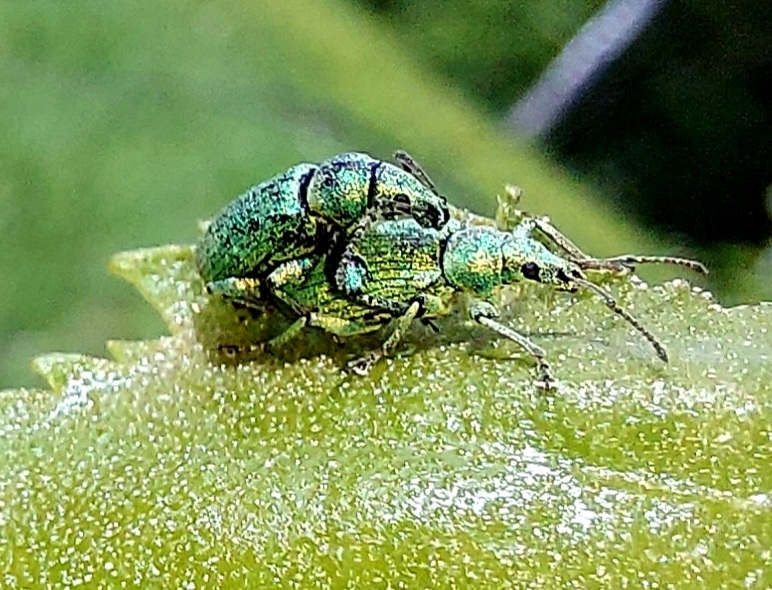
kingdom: Animalia
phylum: Arthropoda
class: Insecta
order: Coleoptera
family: Curculionidae
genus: Phyllobius
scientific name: Phyllobius maculicornis
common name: Green leaf weevil
